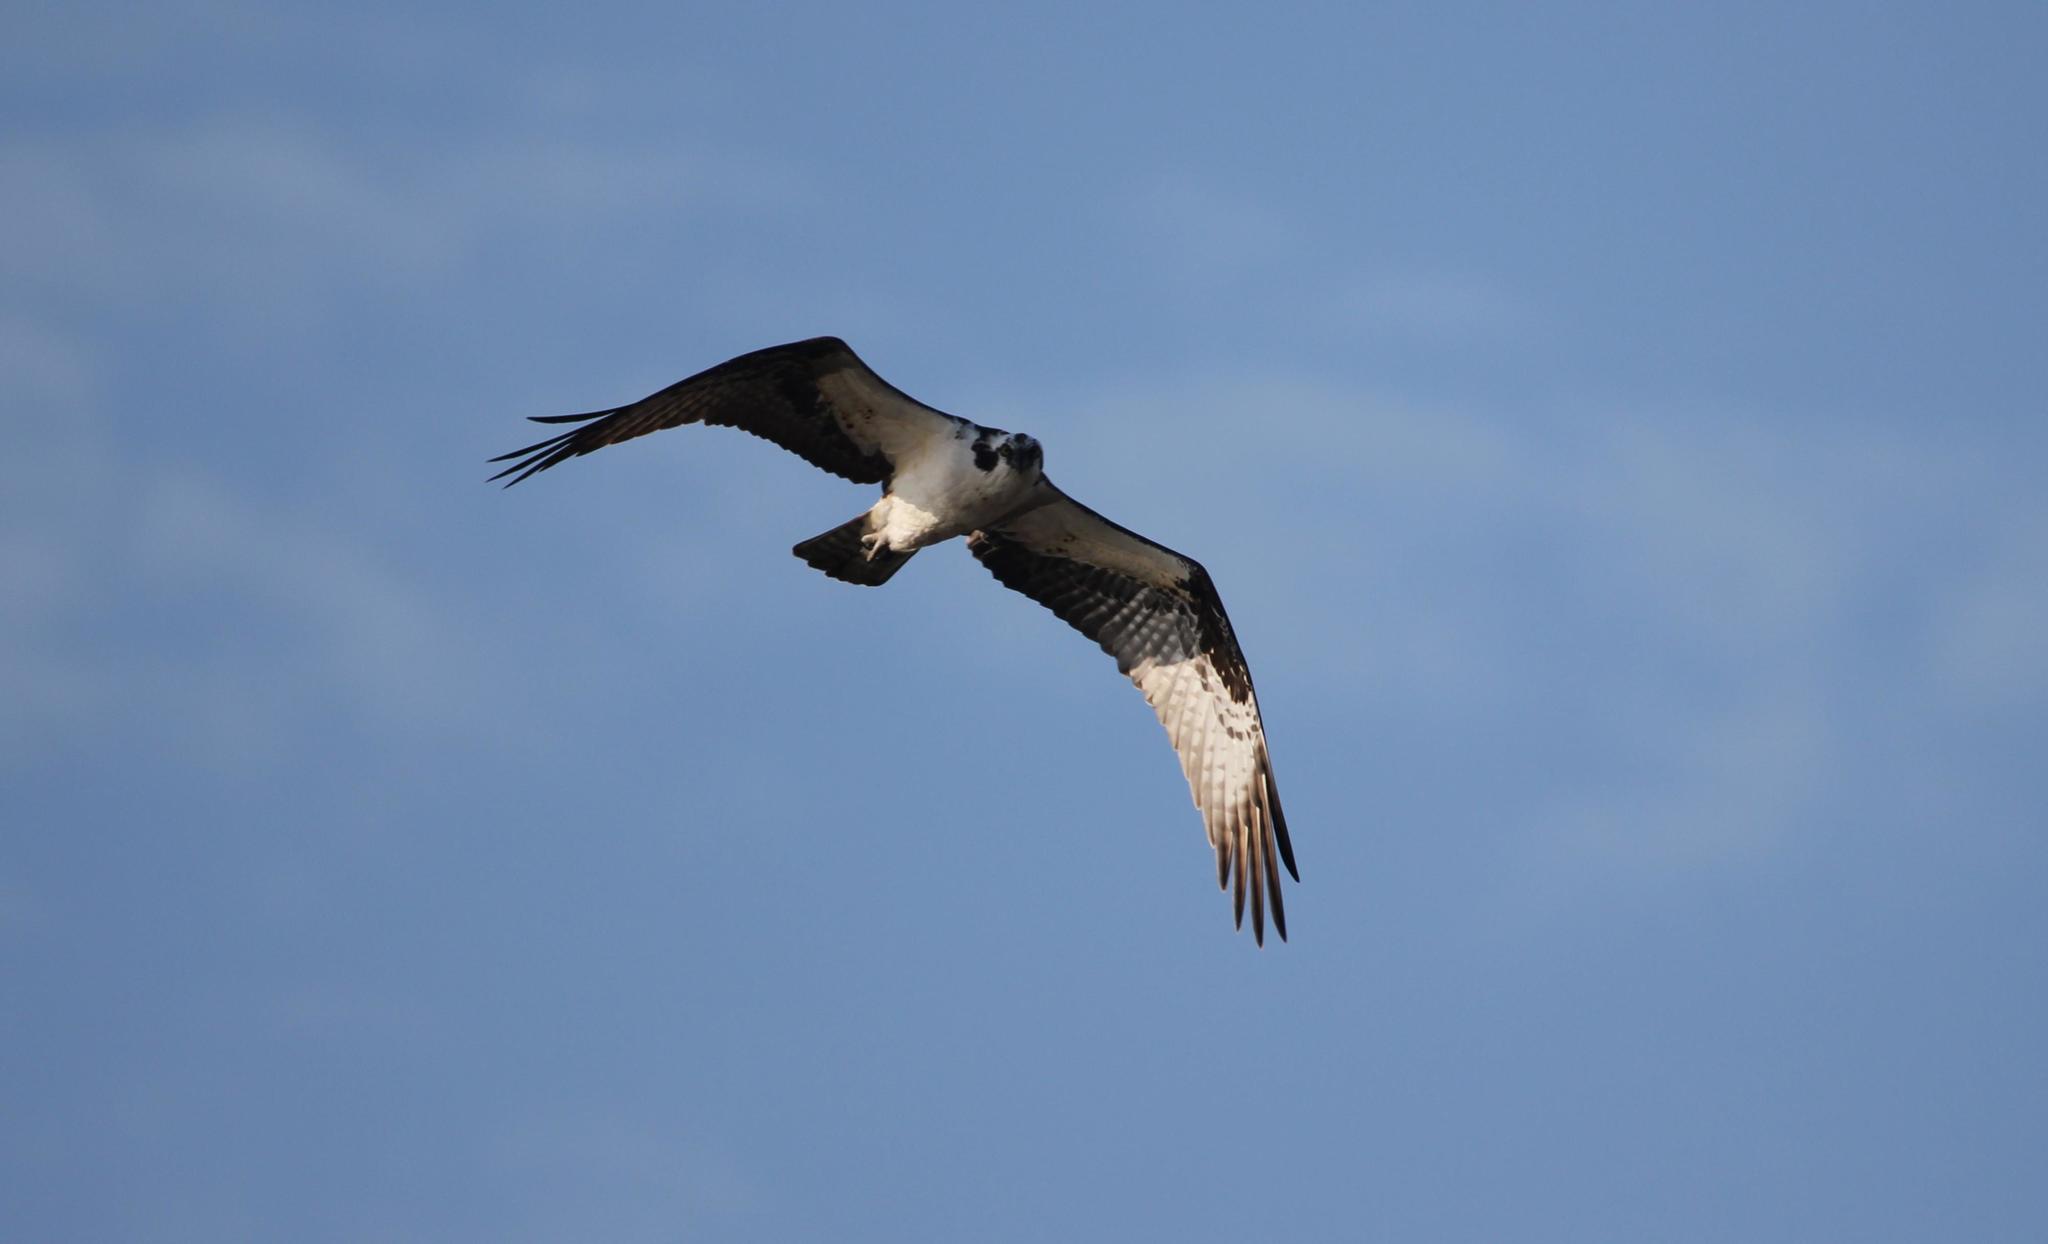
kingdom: Animalia
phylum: Chordata
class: Aves
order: Accipitriformes
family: Pandionidae
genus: Pandion
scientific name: Pandion haliaetus
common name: Osprey
